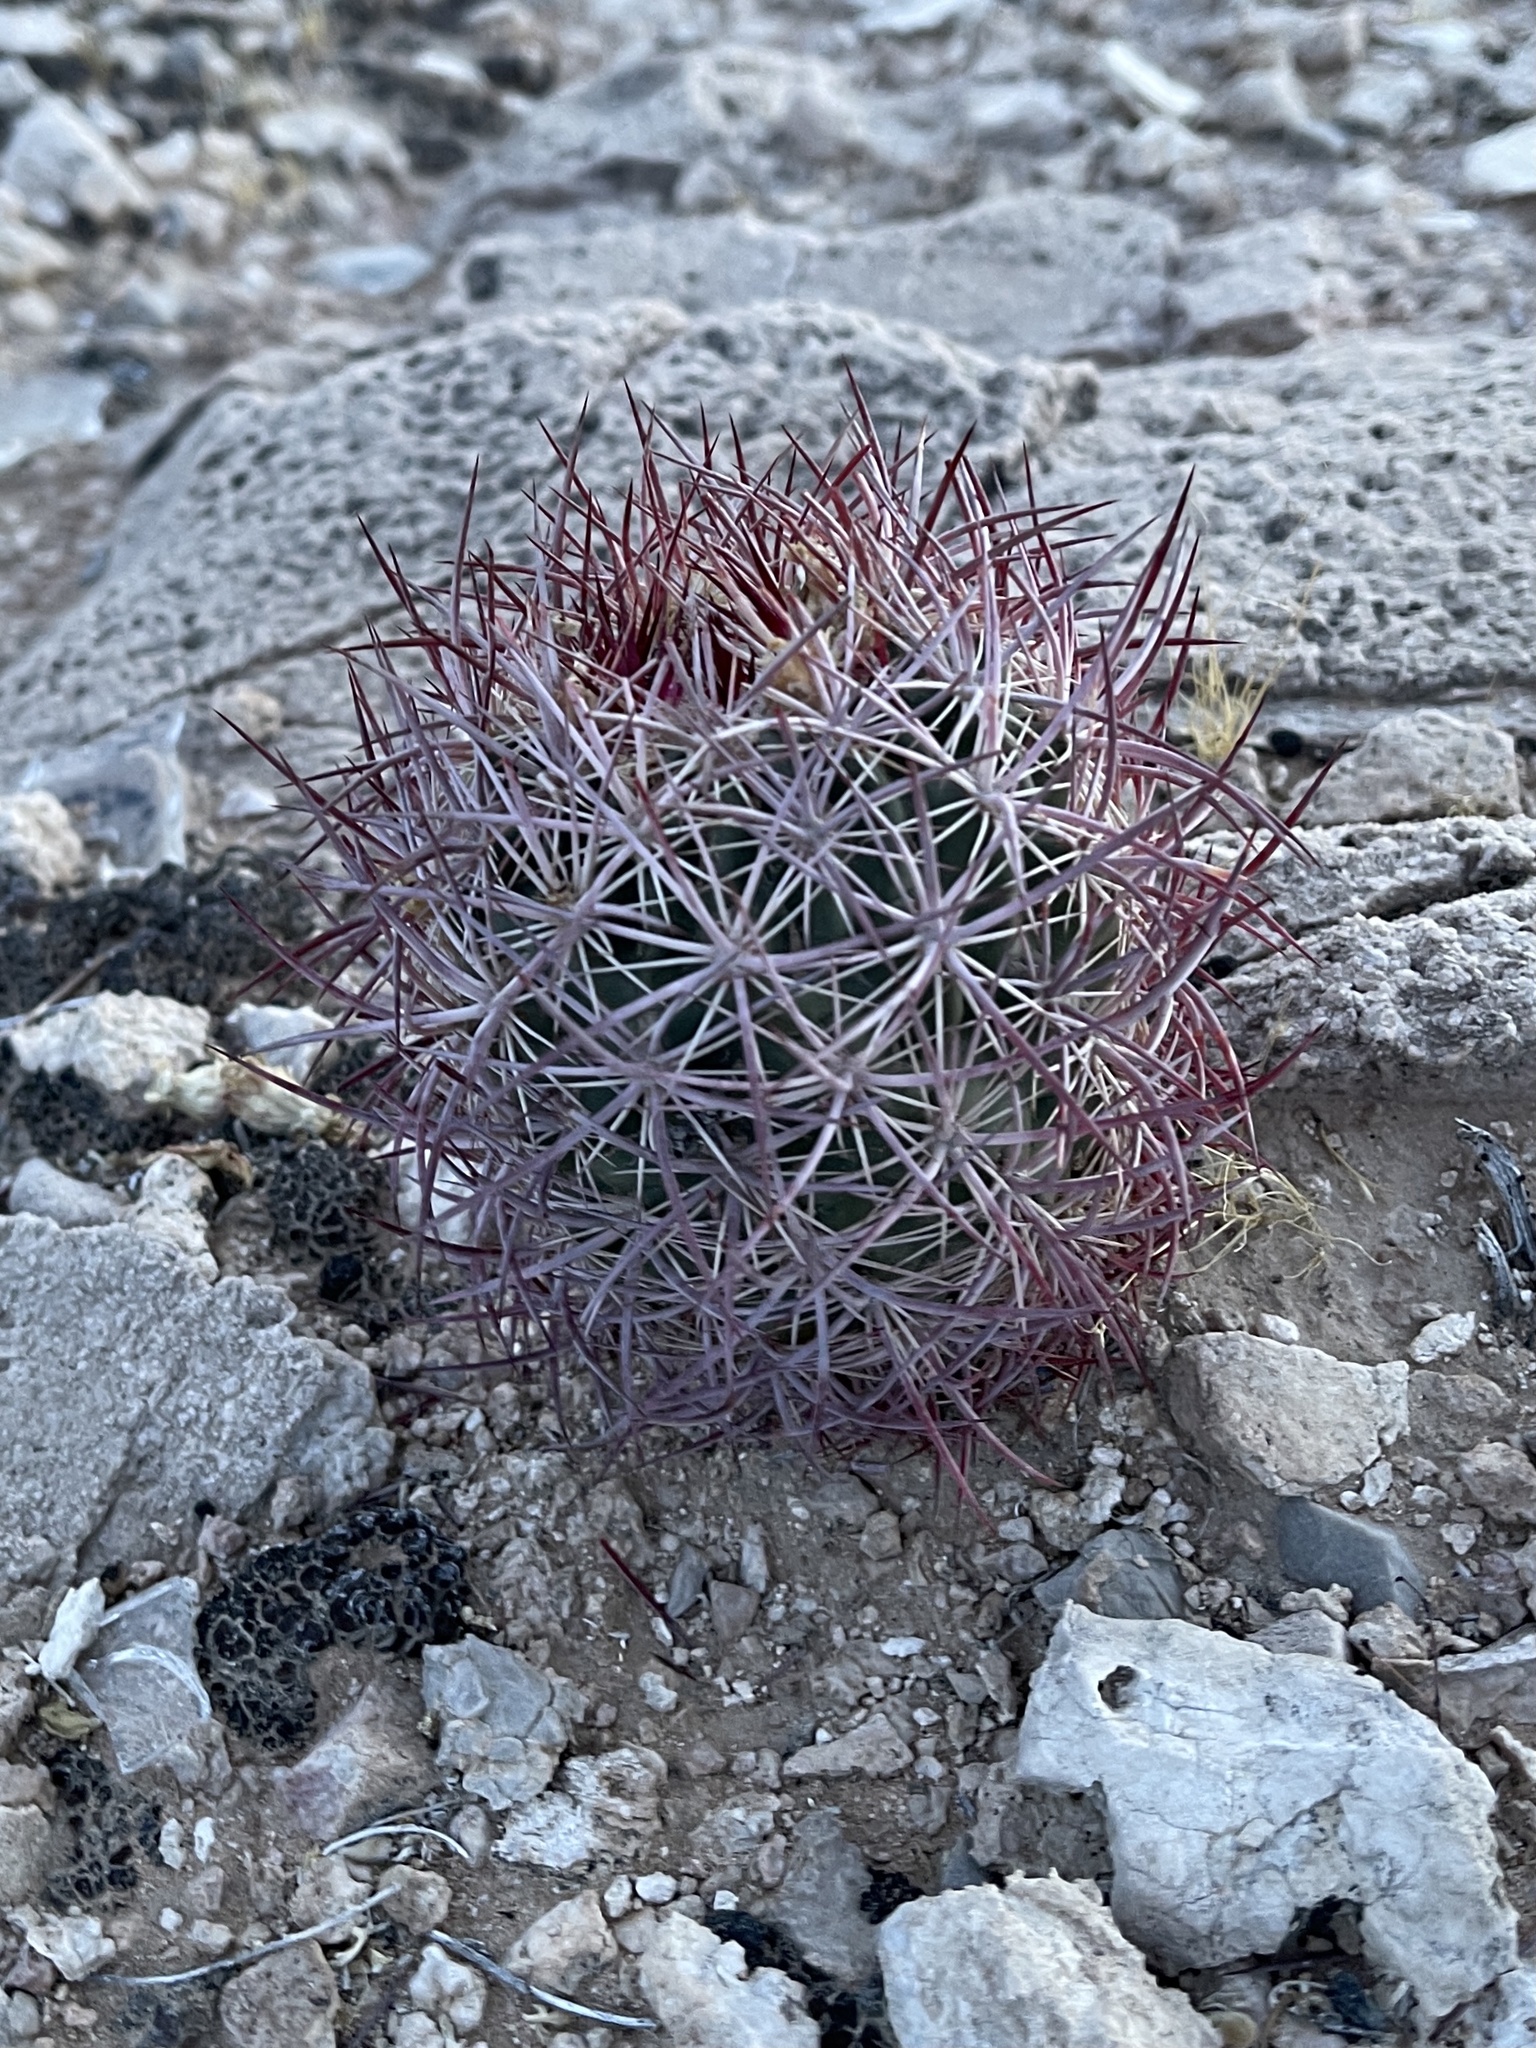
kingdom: Plantae
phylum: Tracheophyta
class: Magnoliopsida
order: Caryophyllales
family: Cactaceae
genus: Sclerocactus
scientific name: Sclerocactus johnsonii
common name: Eight-spine fishhook cactus
